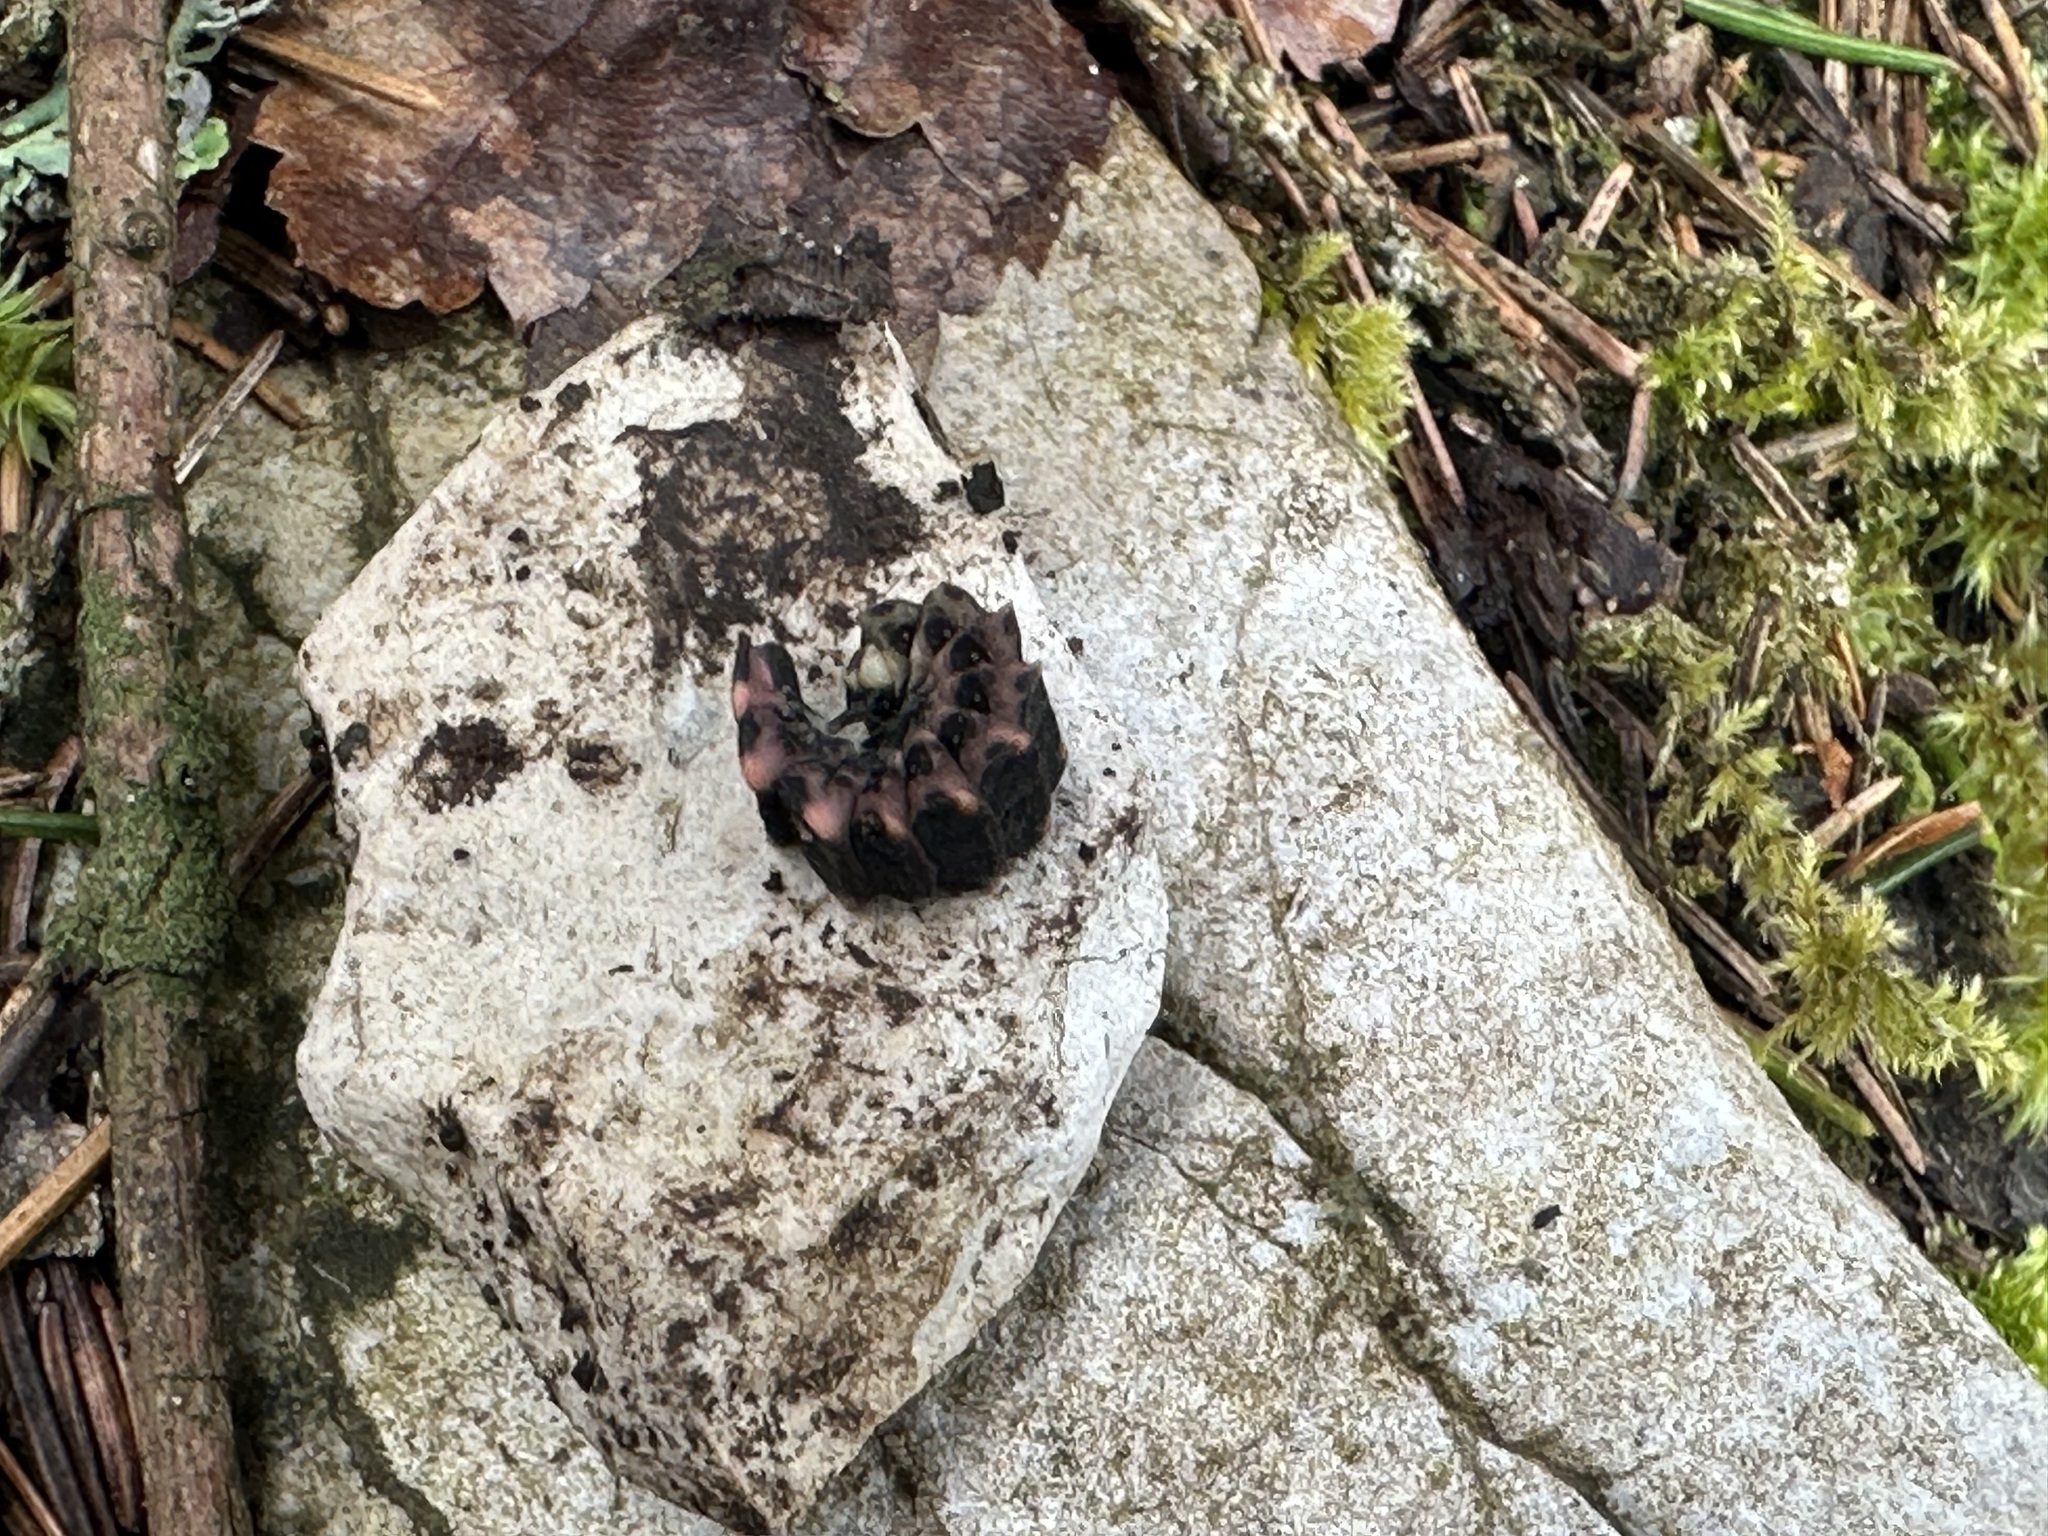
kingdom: Animalia
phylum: Arthropoda
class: Insecta
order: Coleoptera
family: Lampyridae
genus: Lampyris
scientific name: Lampyris noctiluca
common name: Glow-worm
